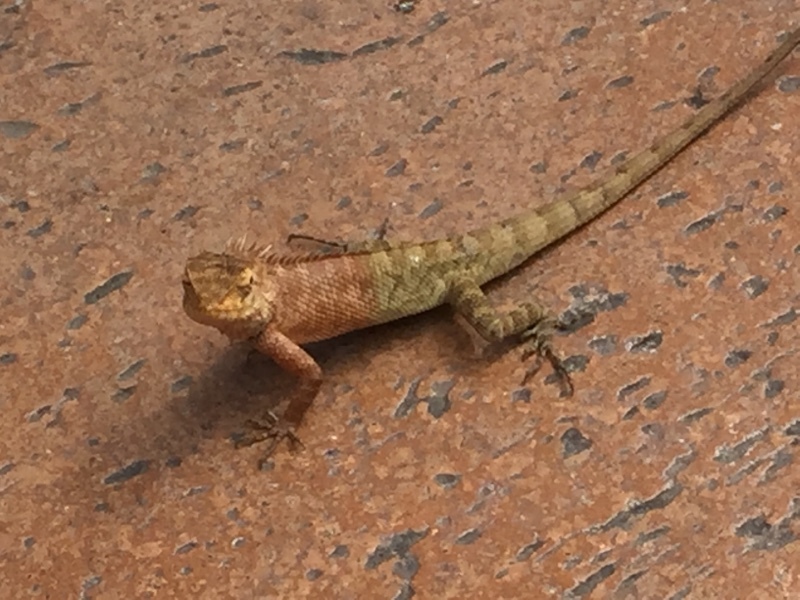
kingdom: Animalia
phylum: Chordata
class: Squamata
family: Agamidae
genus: Calotes
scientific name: Calotes versicolor
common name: Oriental garden lizard
